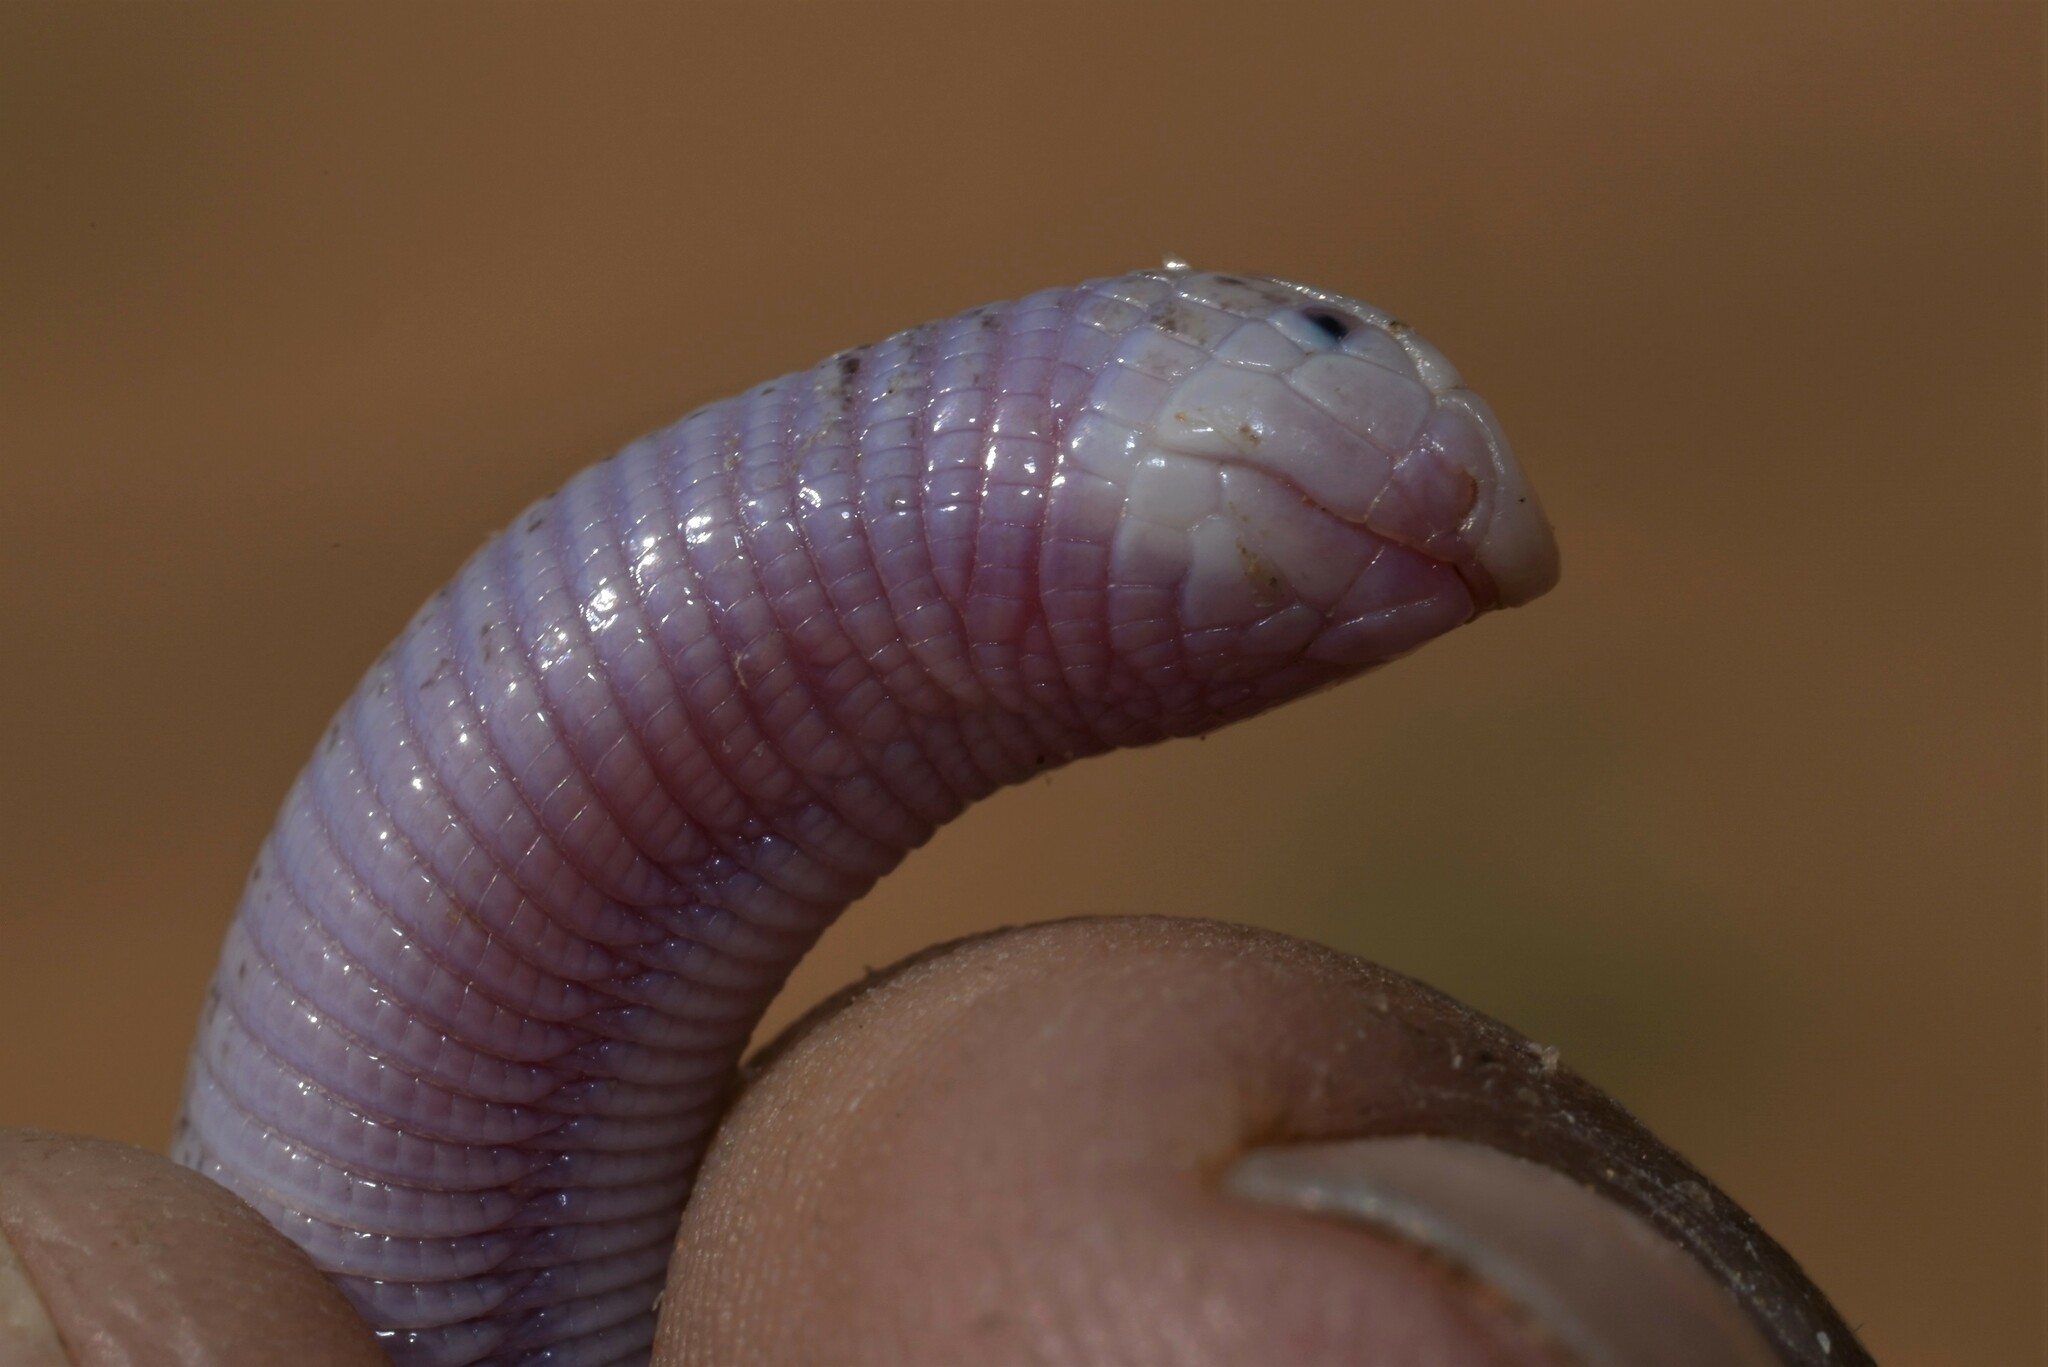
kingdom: Animalia
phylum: Chordata
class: Squamata
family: Trogonophidae
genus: Diplometopon
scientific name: Diplometopon zarudnyi
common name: Zarudnyi's worm lizard
